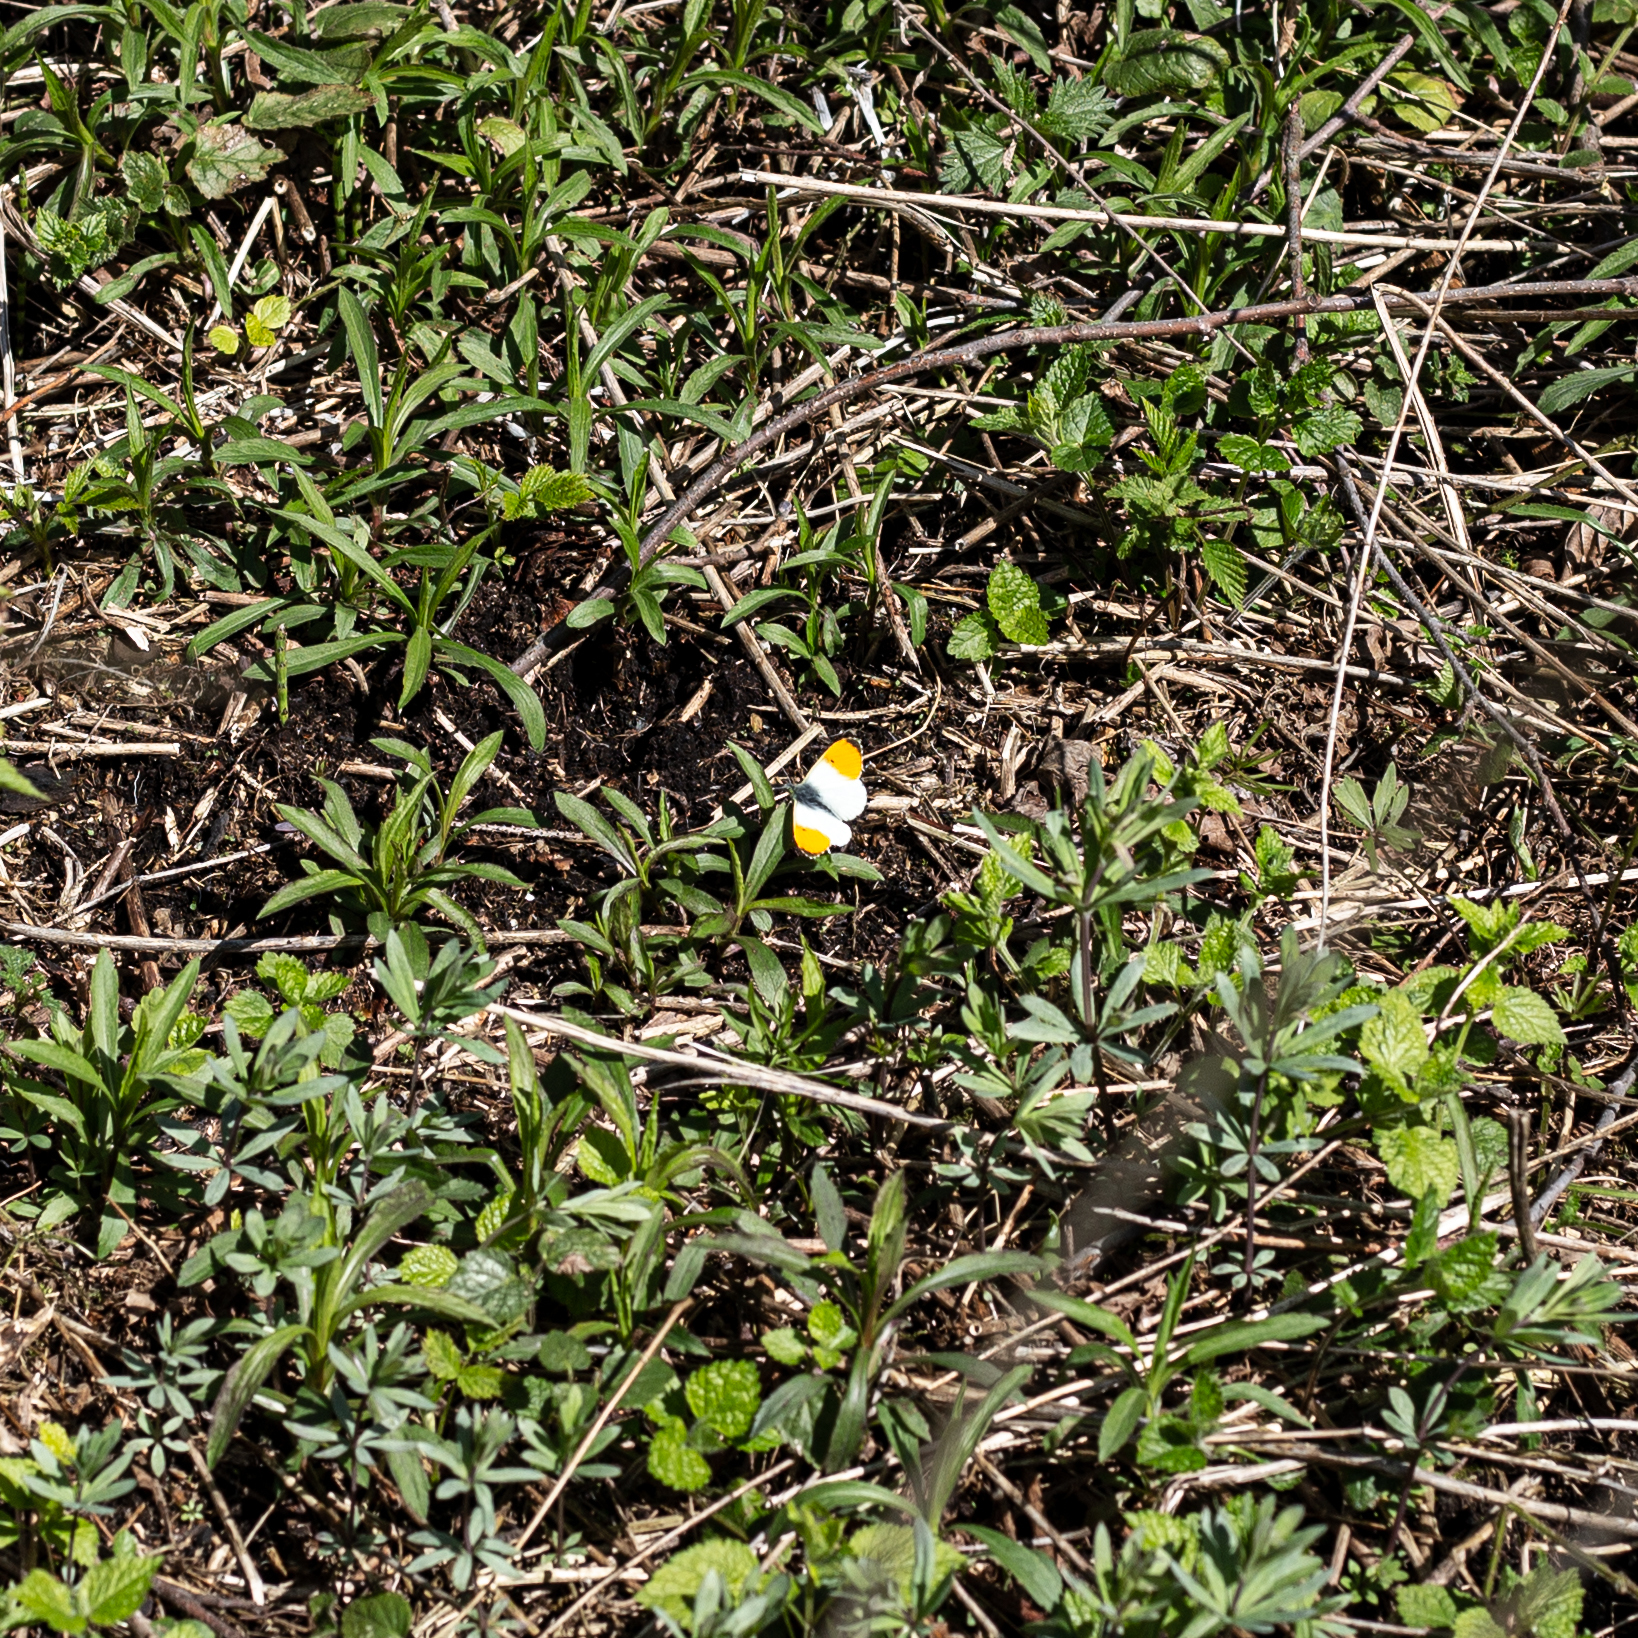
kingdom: Animalia
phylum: Arthropoda
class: Insecta
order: Lepidoptera
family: Pieridae
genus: Anthocharis
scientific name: Anthocharis cardamines
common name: Orange-tip
